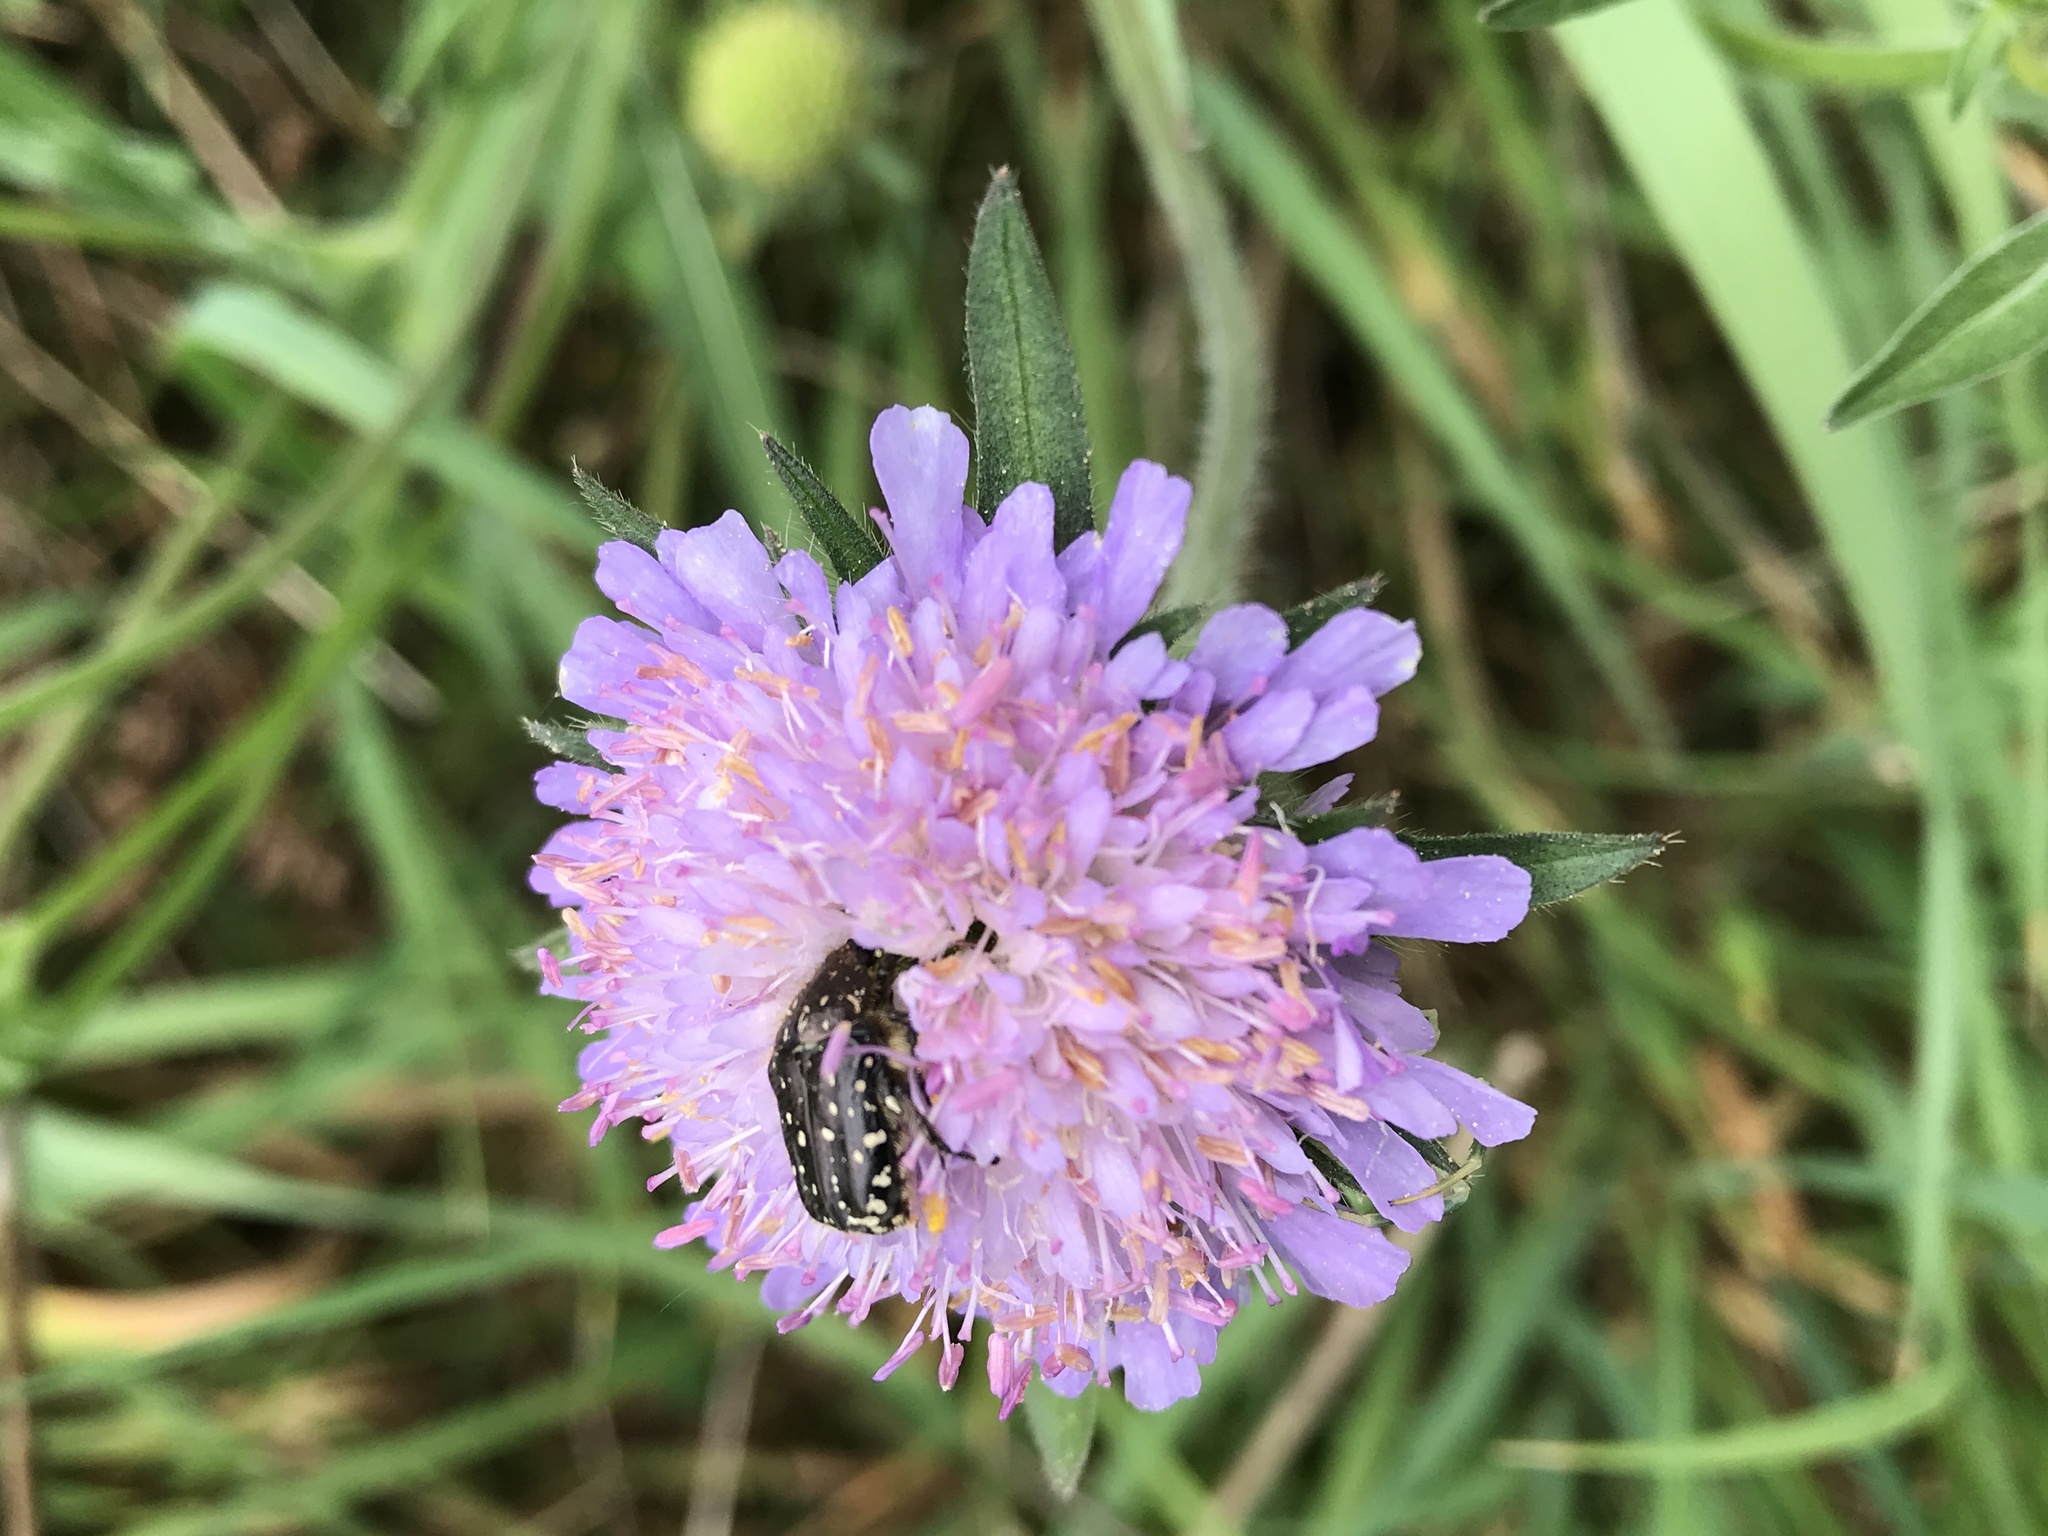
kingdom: Animalia
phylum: Arthropoda
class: Insecta
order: Coleoptera
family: Scarabaeidae
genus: Oxythyrea
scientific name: Oxythyrea funesta
